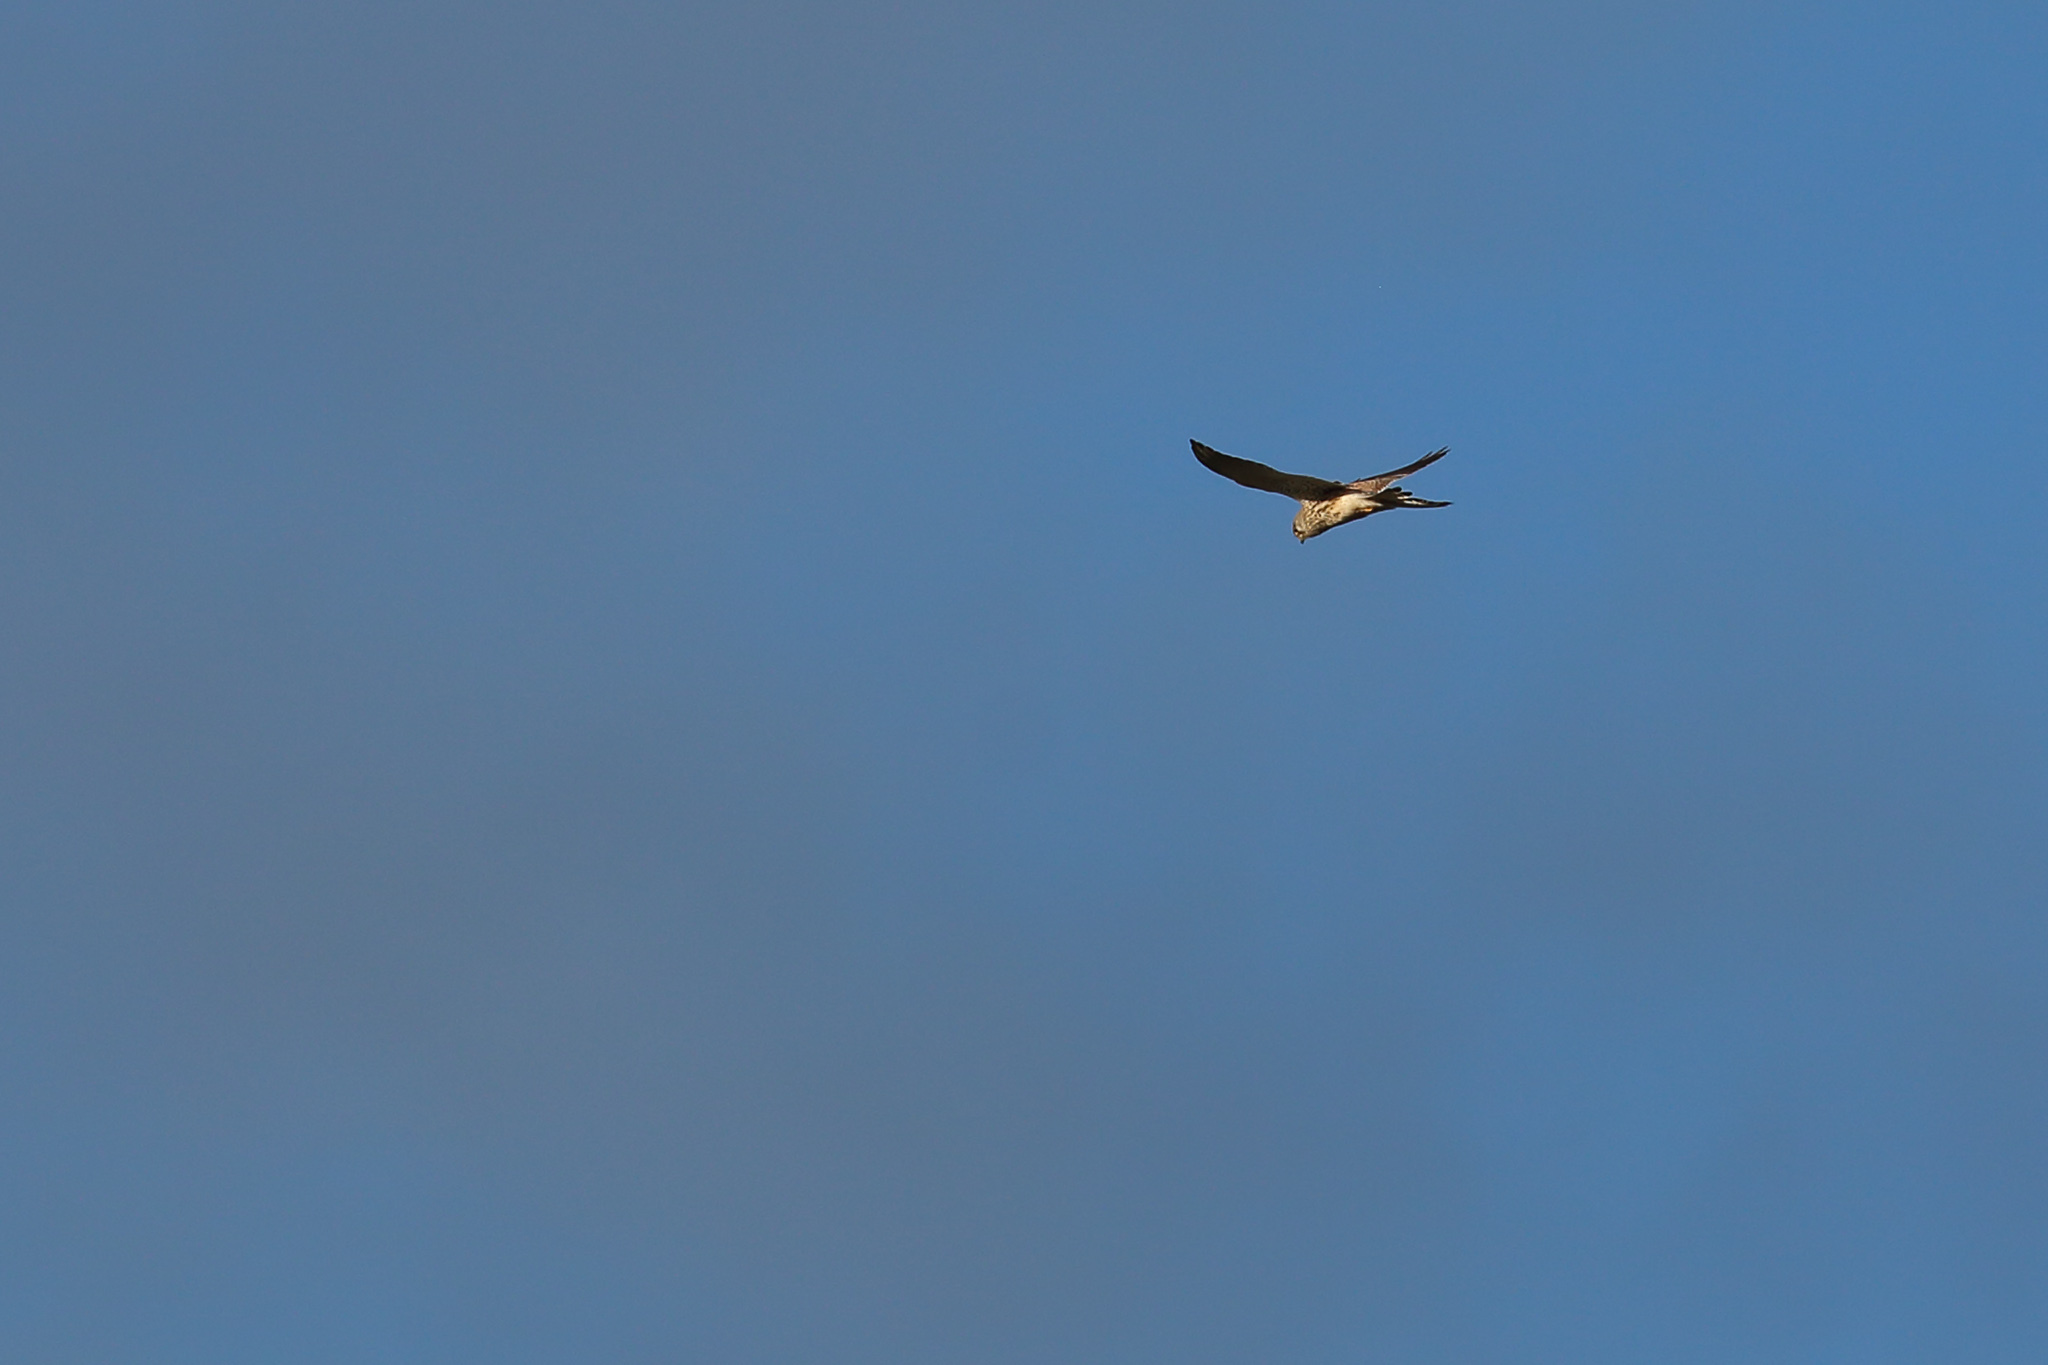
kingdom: Animalia
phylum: Chordata
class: Aves
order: Falconiformes
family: Falconidae
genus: Falco
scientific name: Falco tinnunculus
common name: Common kestrel
